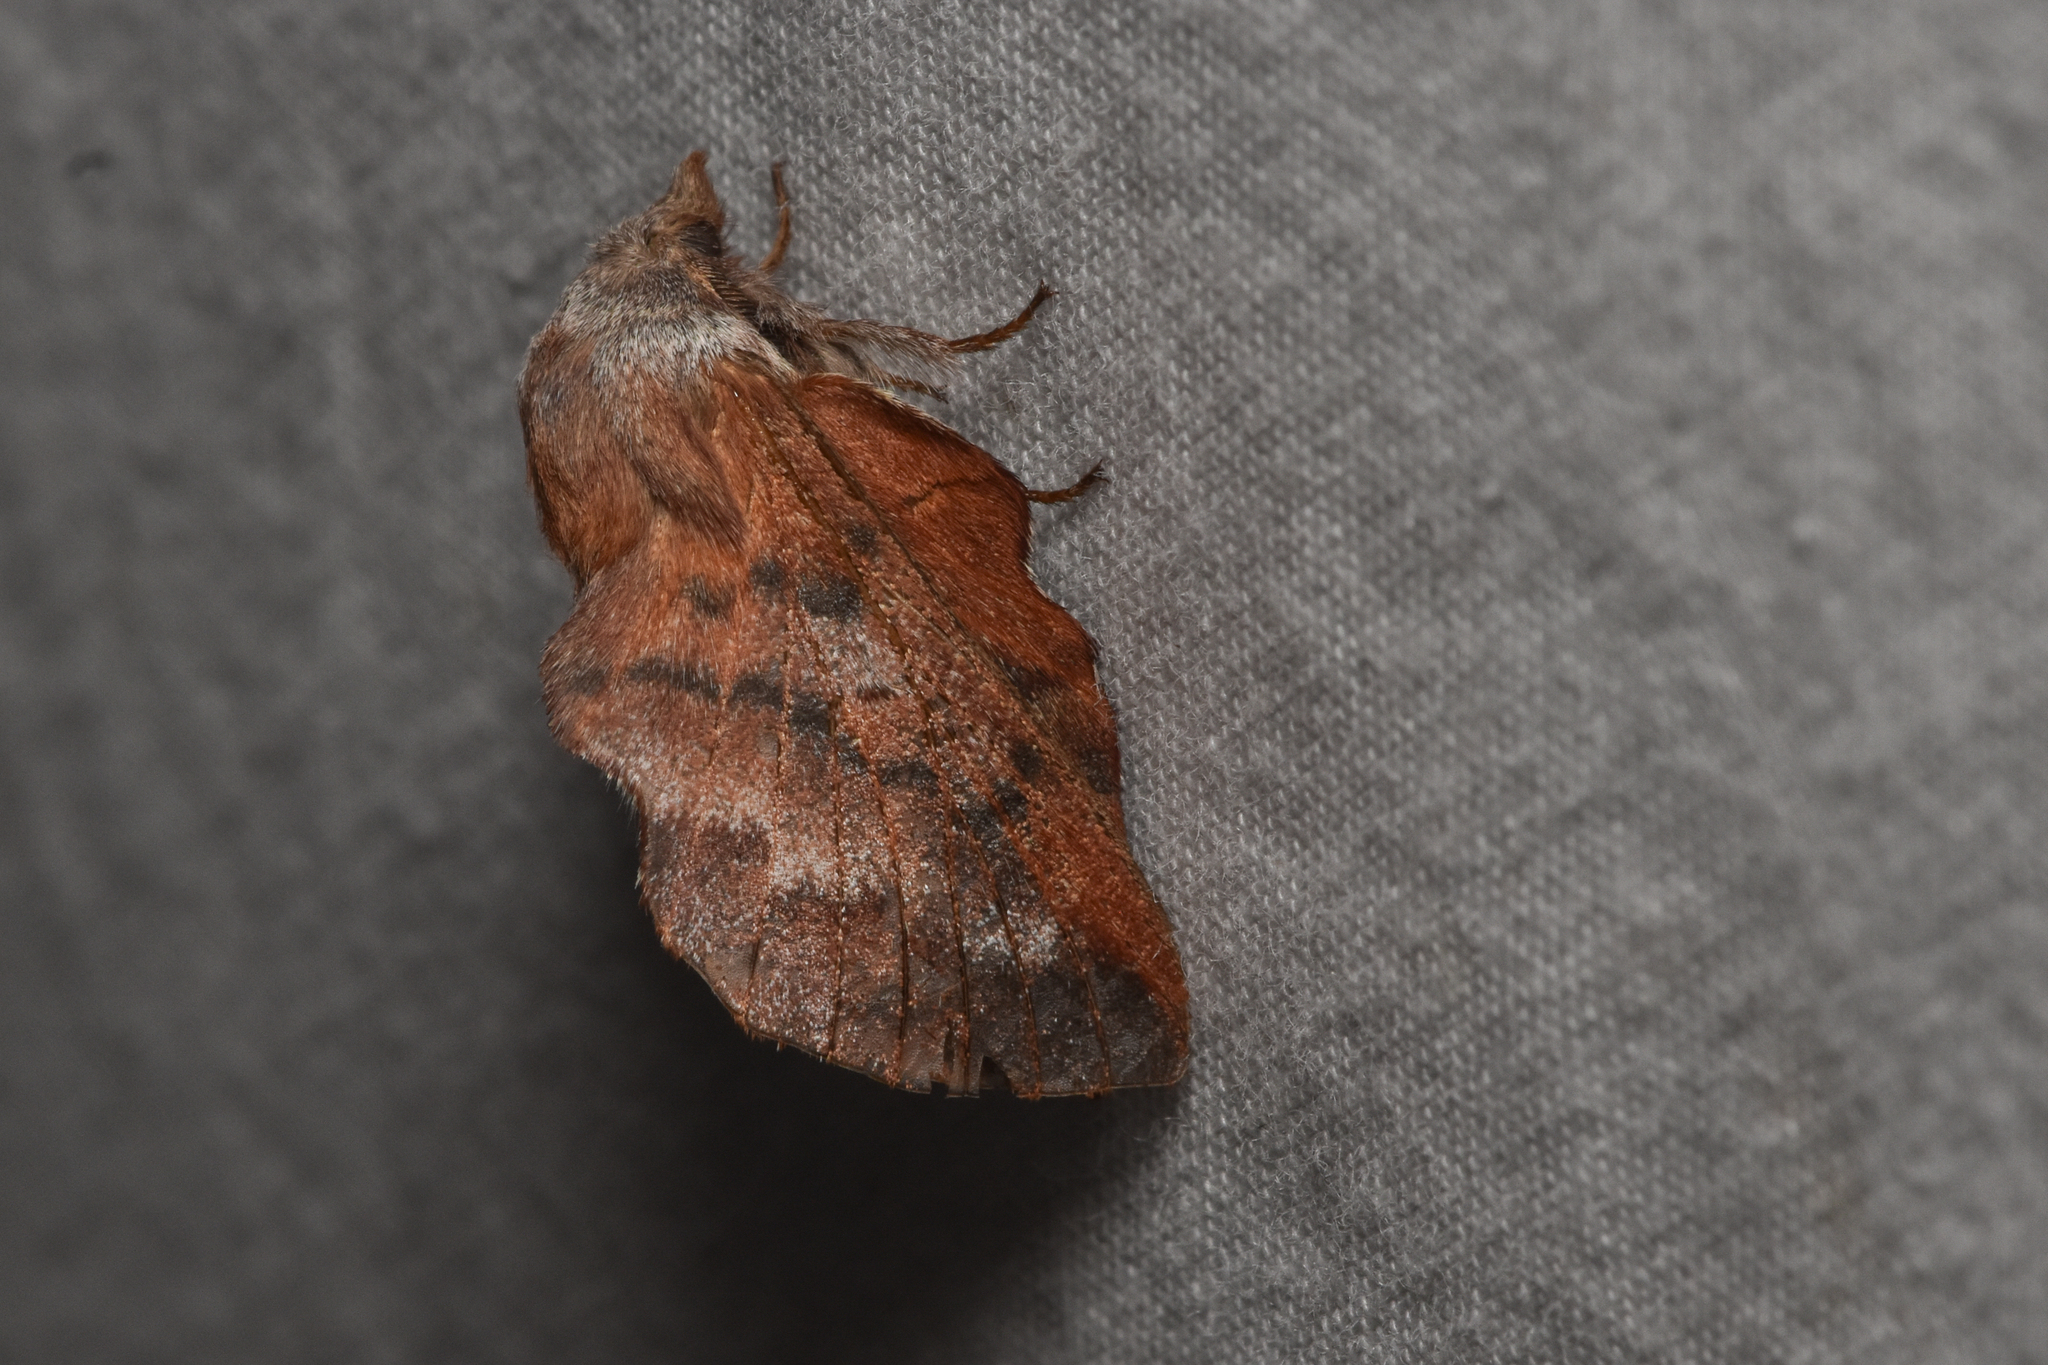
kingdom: Animalia
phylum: Arthropoda
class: Insecta
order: Lepidoptera
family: Lasiocampidae
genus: Phyllodesma
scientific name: Phyllodesma americana
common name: American lappet moth
